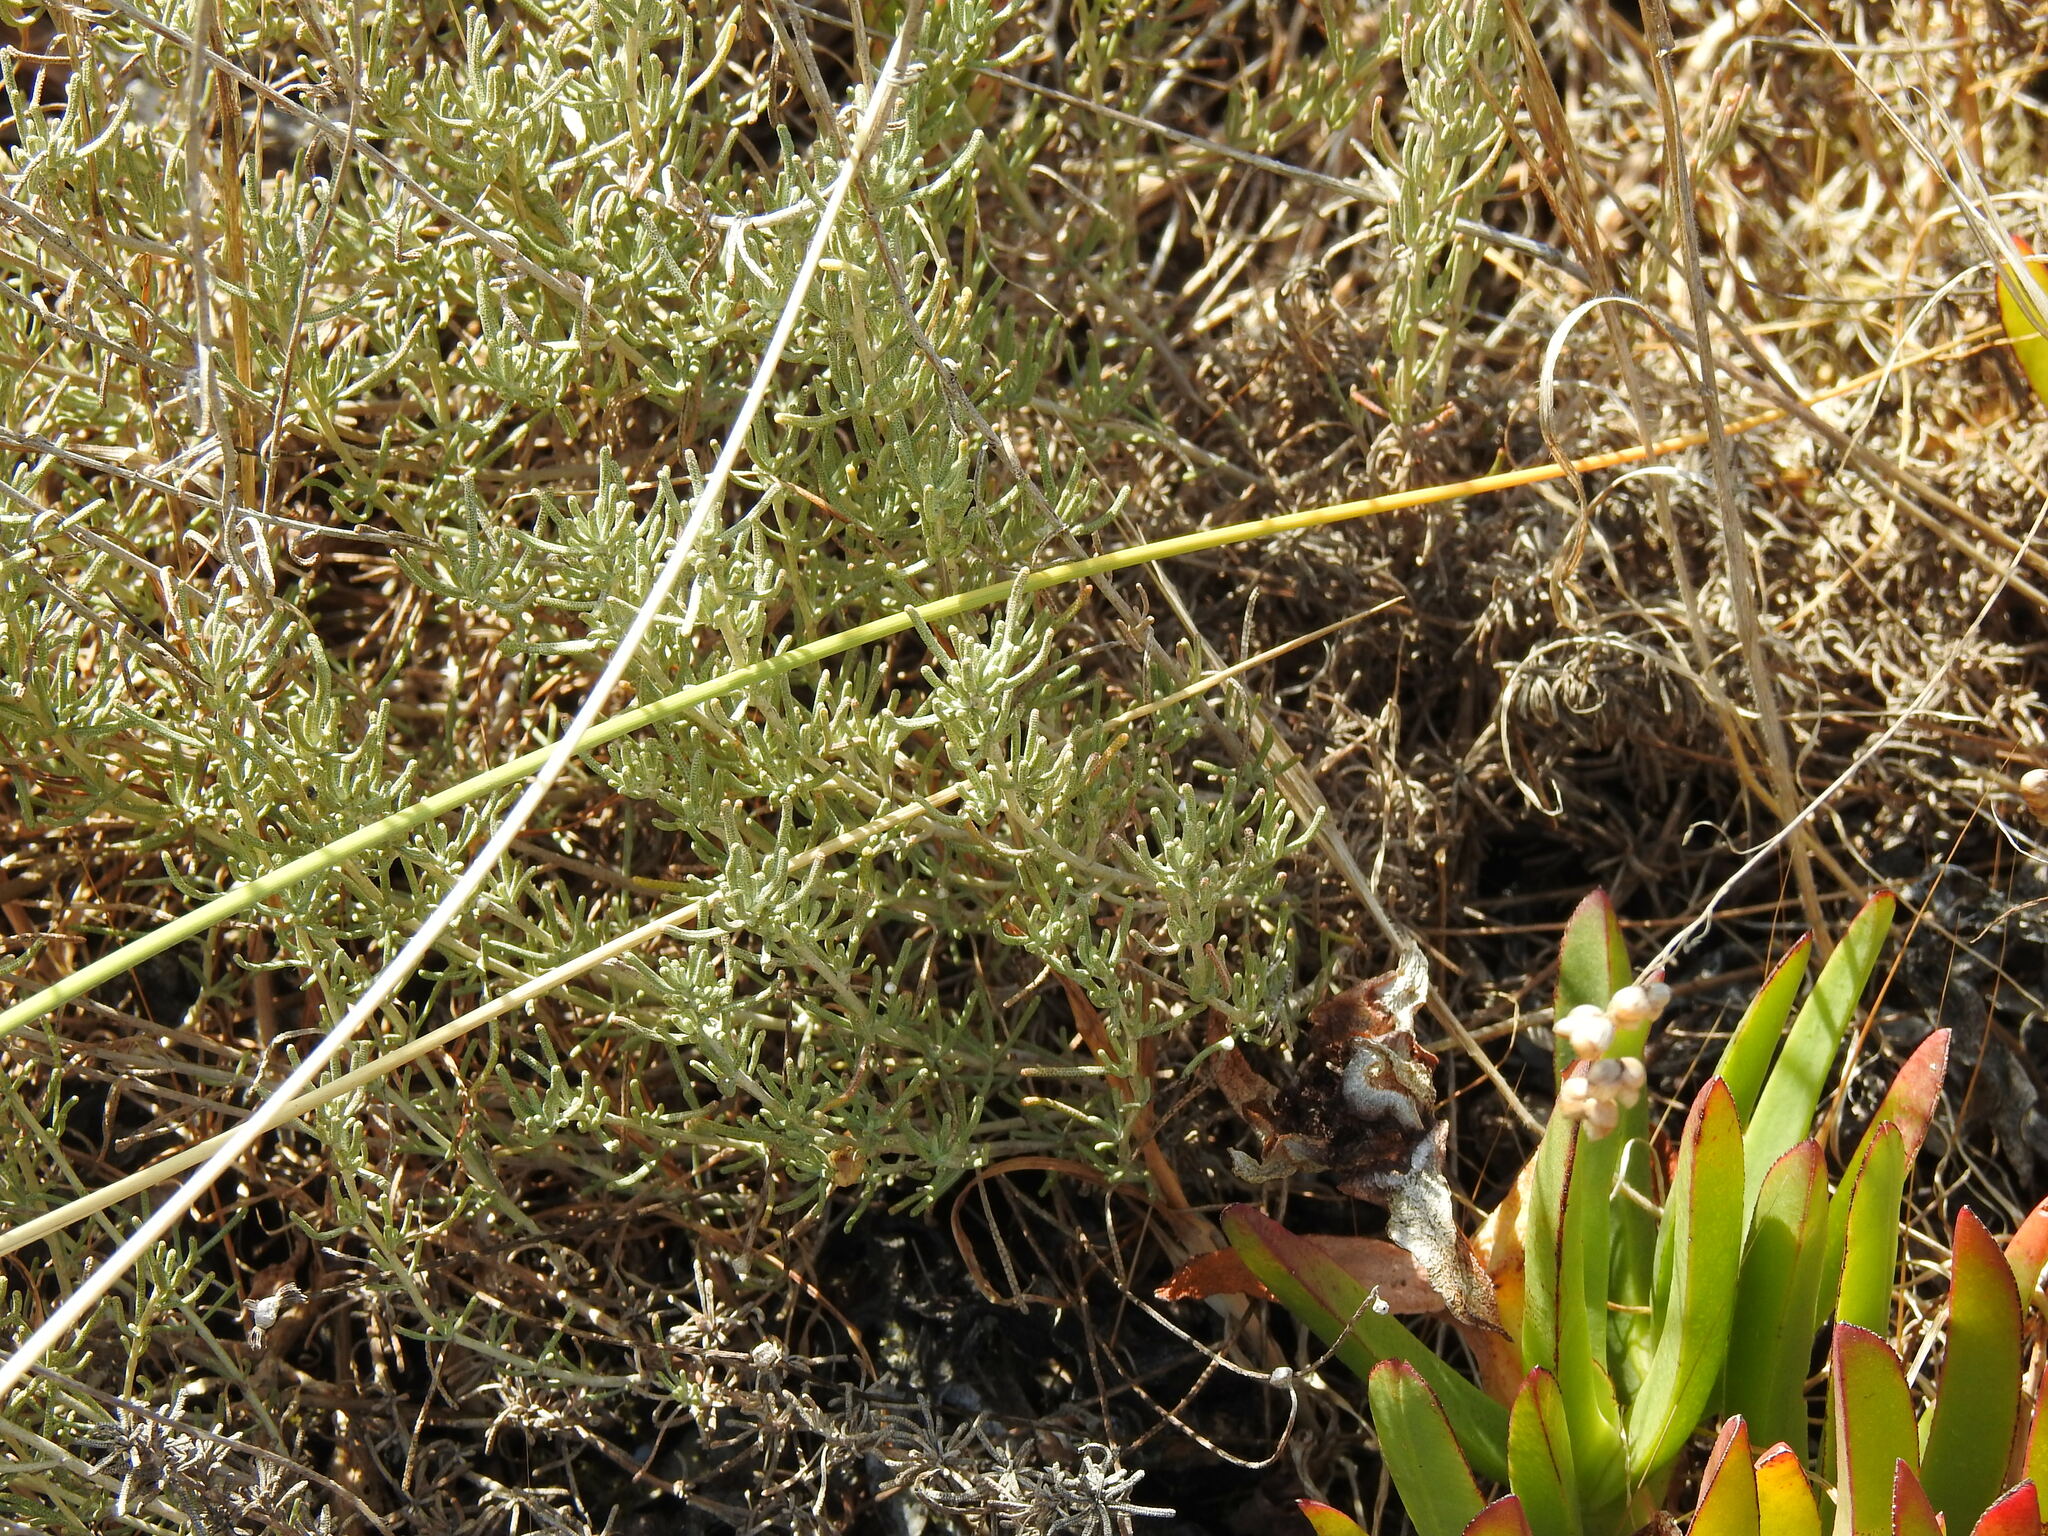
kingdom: Plantae
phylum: Tracheophyta
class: Magnoliopsida
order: Asterales
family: Asteraceae
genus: Santolina
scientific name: Santolina impressa
